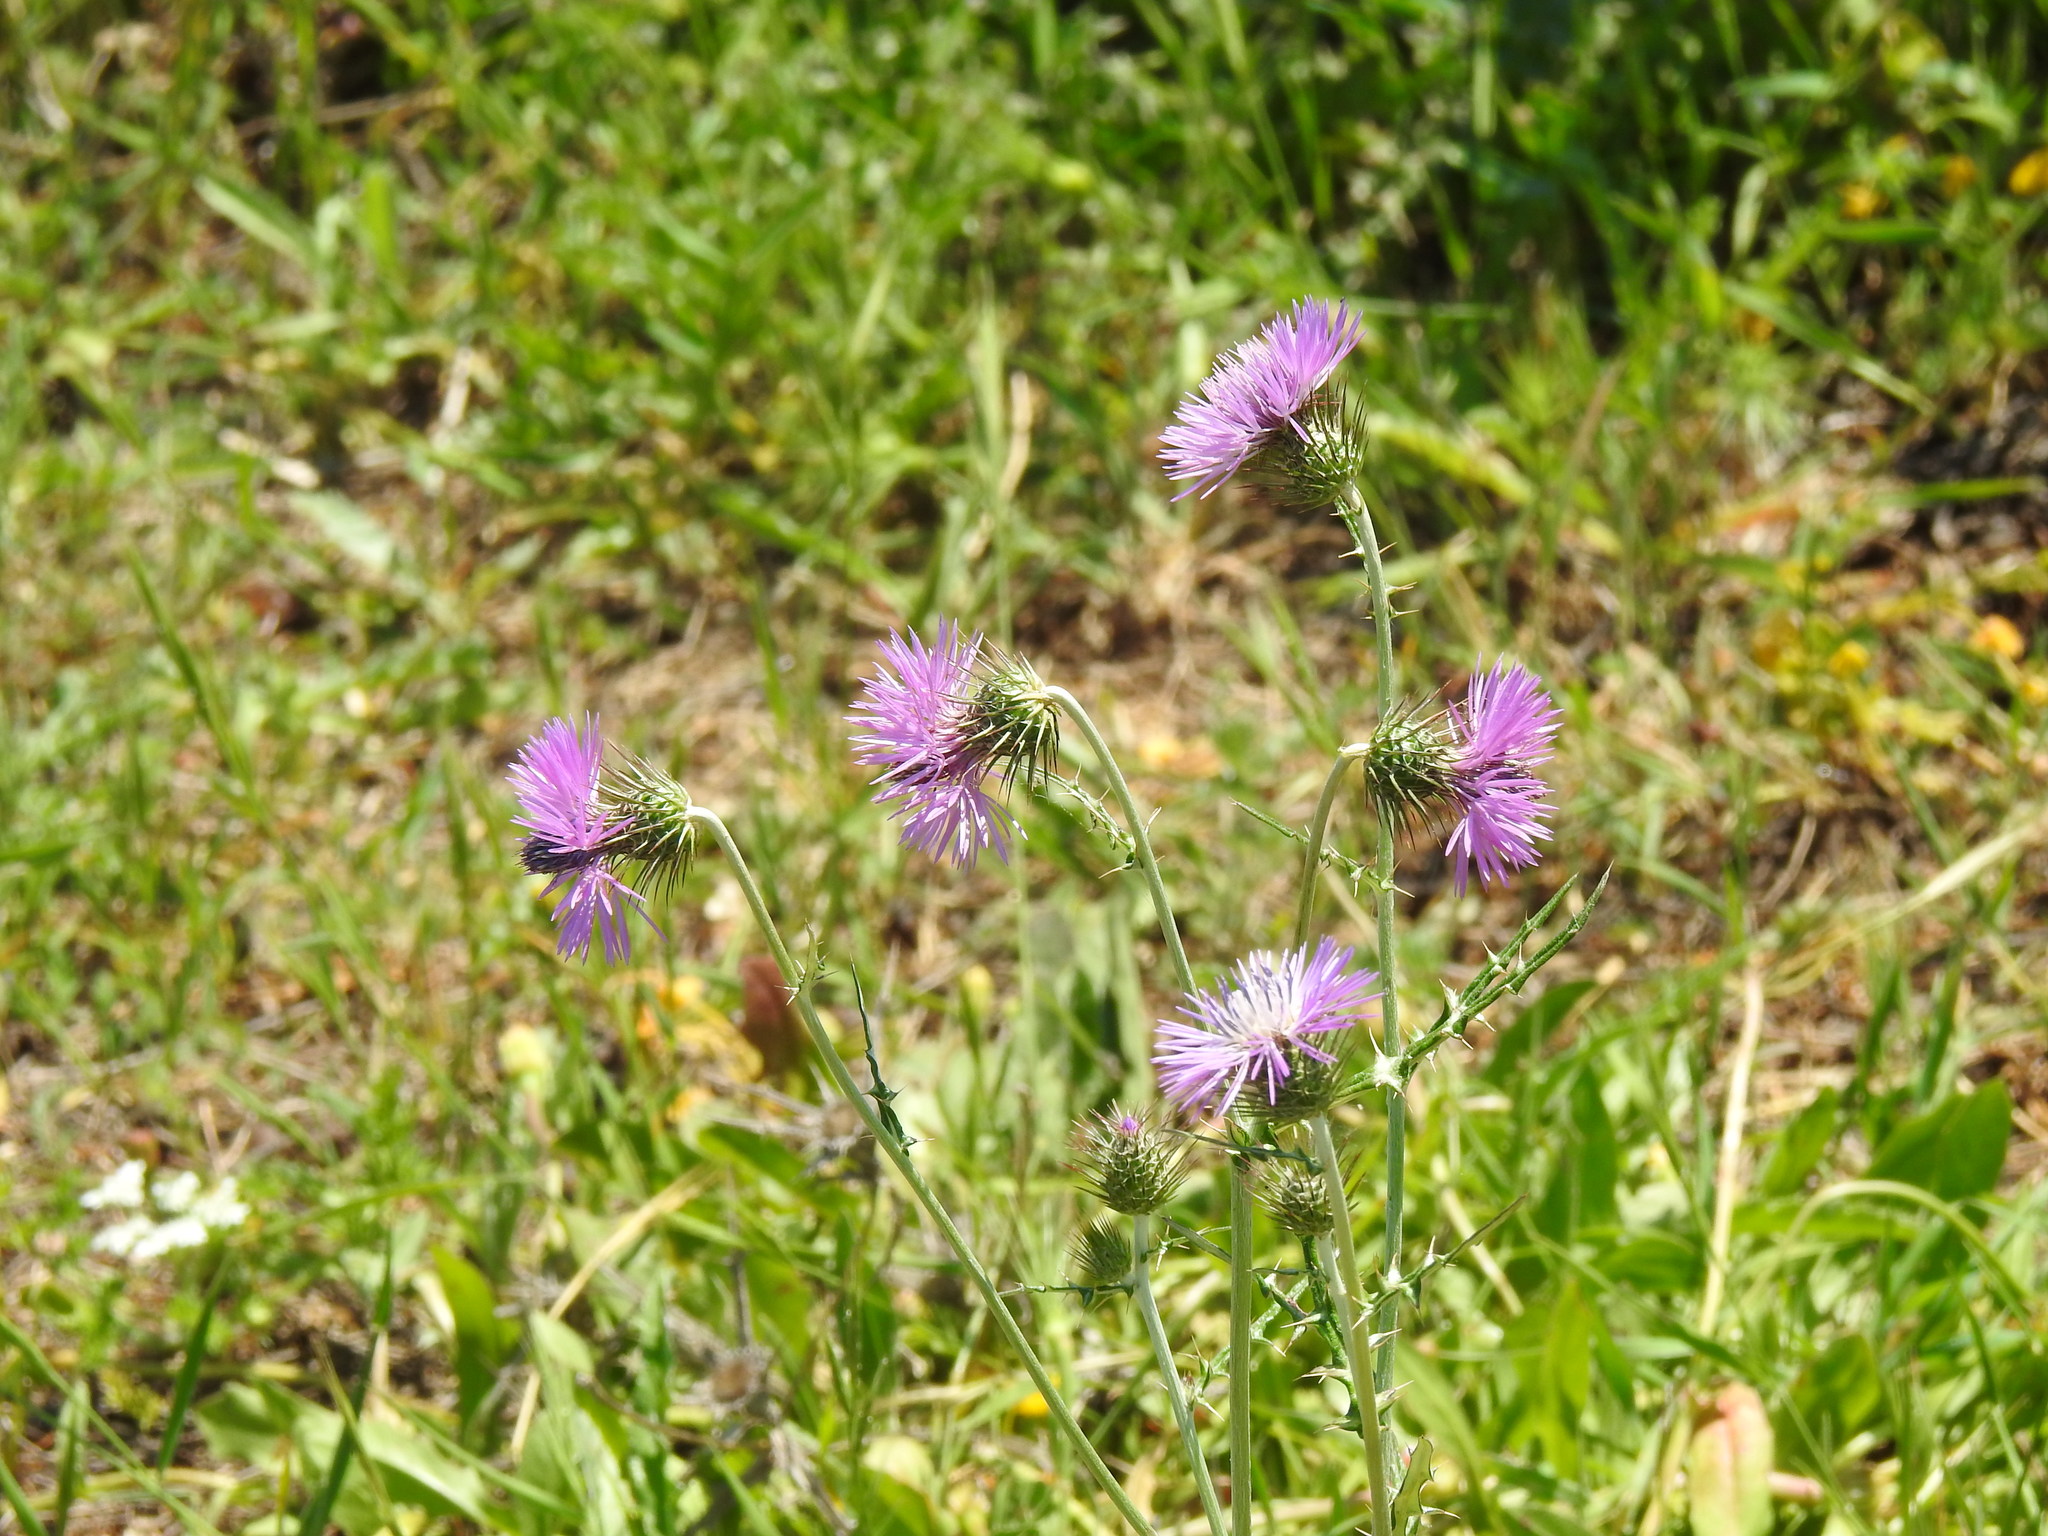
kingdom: Plantae
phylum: Tracheophyta
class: Magnoliopsida
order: Asterales
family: Asteraceae
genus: Galactites
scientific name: Galactites tomentosa
